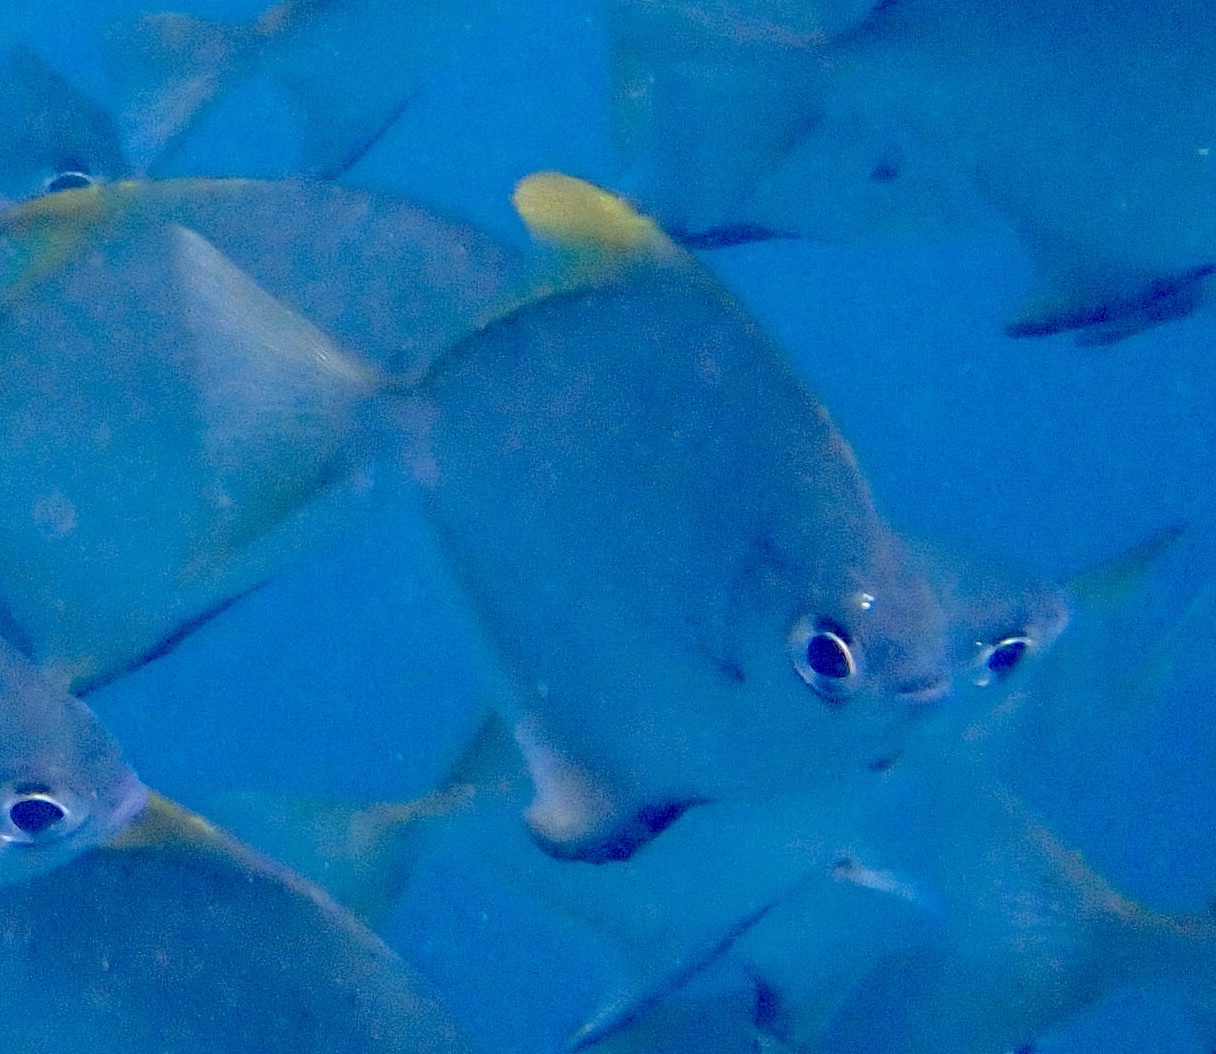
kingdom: Animalia
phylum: Chordata
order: Perciformes
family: Monodactylidae
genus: Monodactylus
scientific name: Monodactylus argenteus
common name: Silver moony
